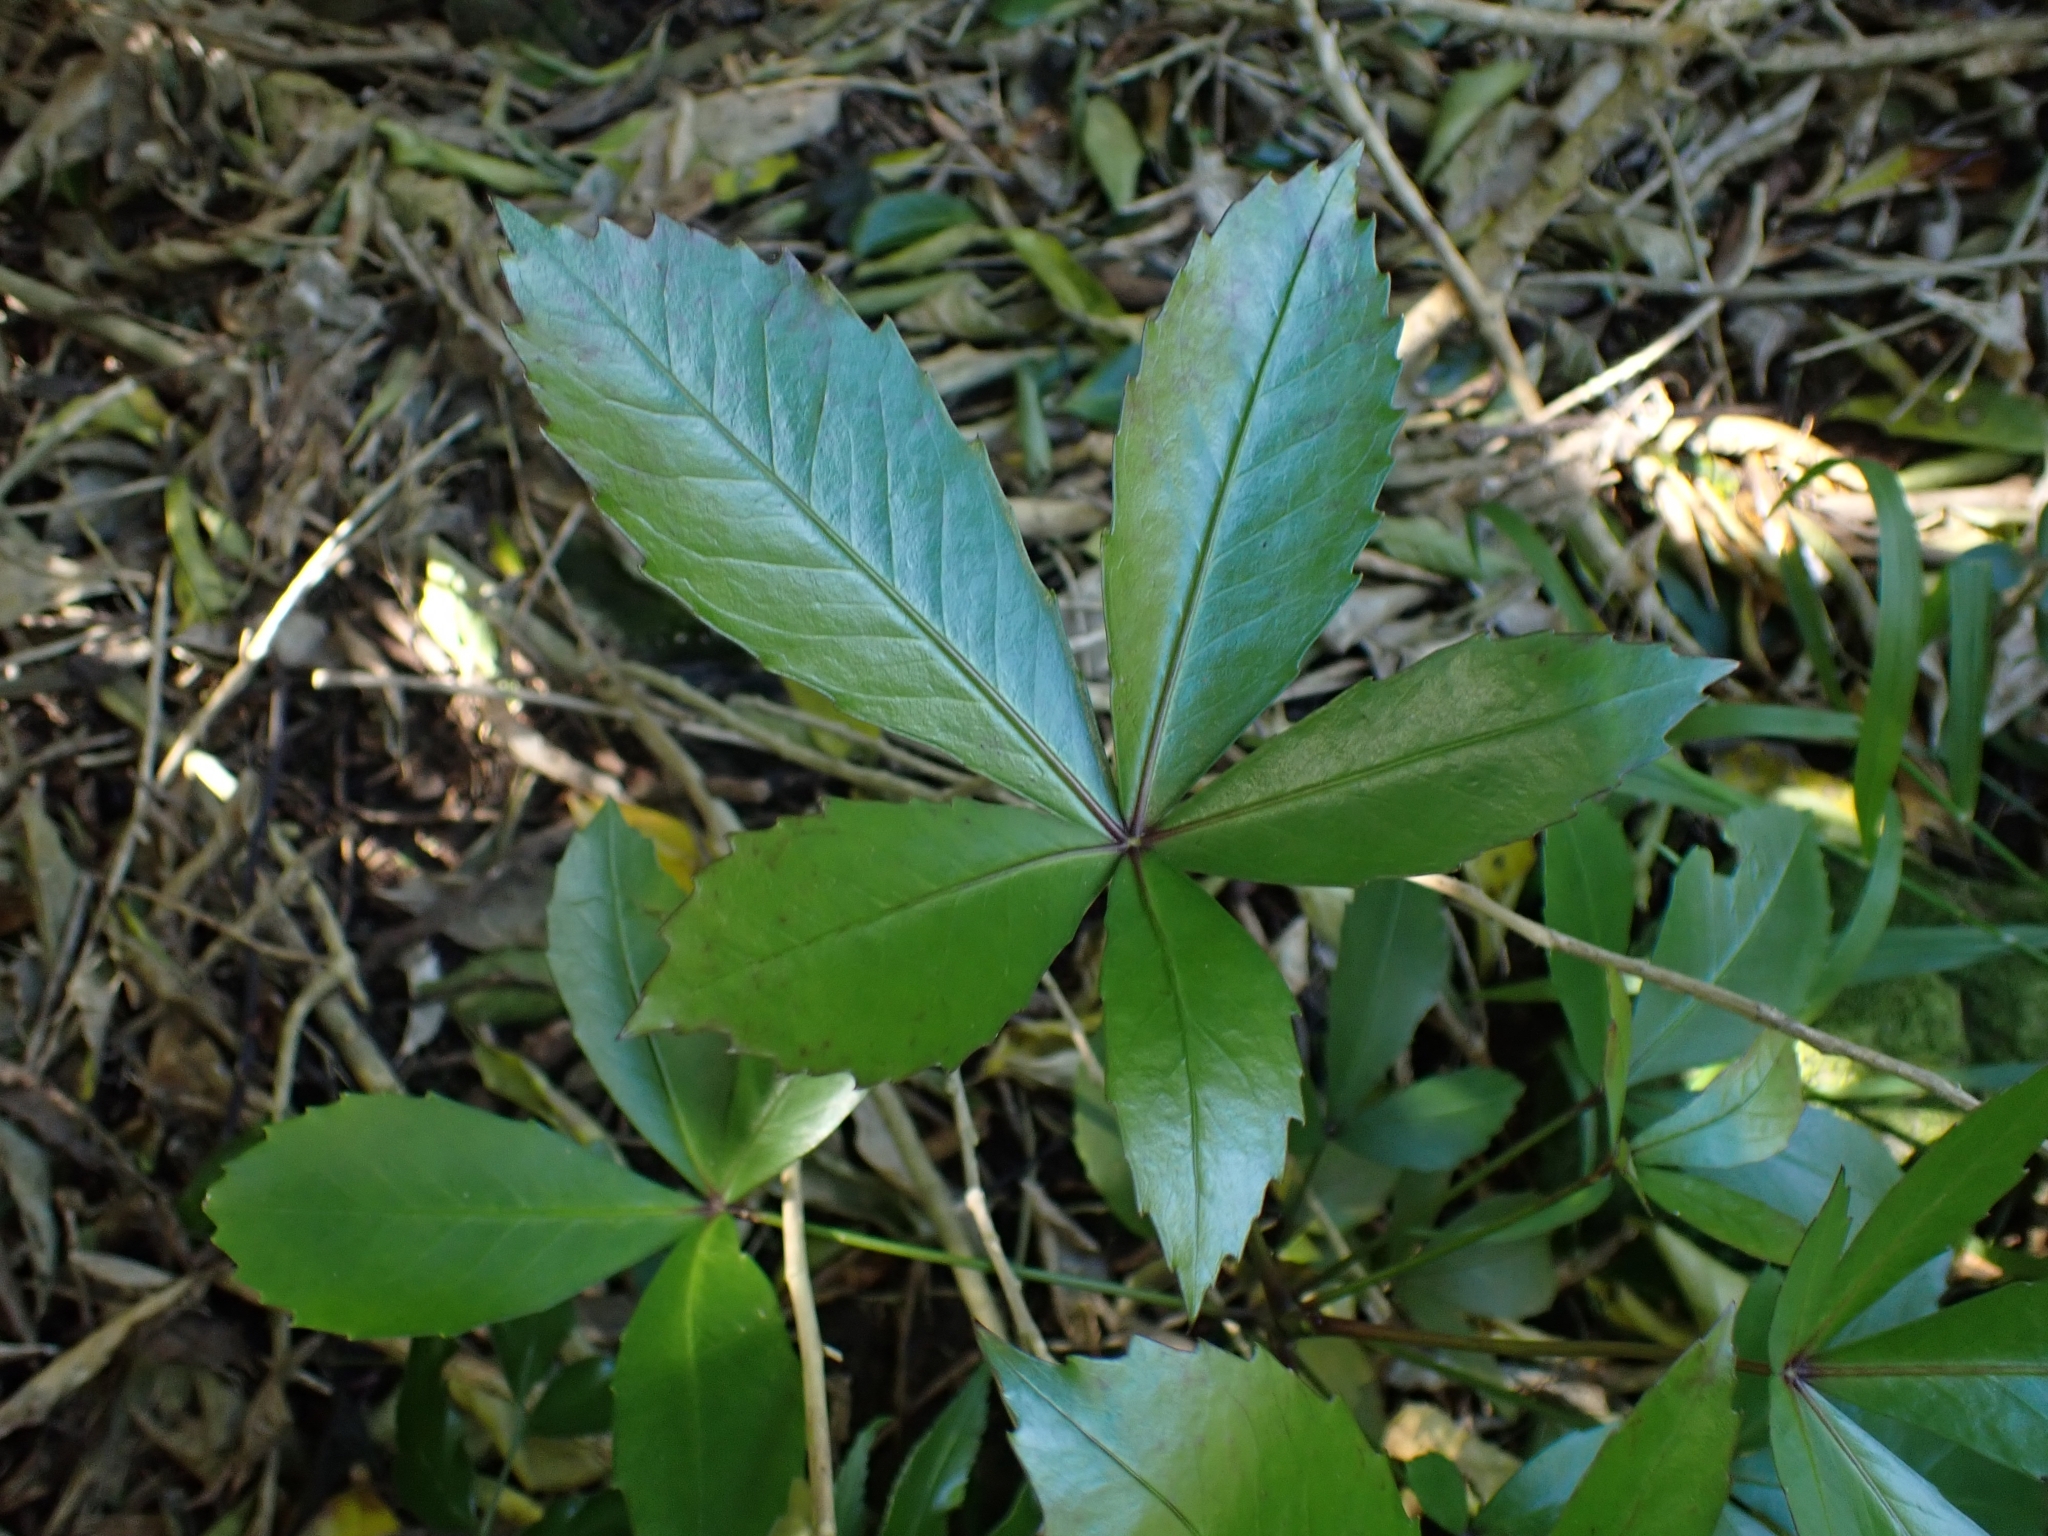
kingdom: Plantae
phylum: Tracheophyta
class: Magnoliopsida
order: Apiales
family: Araliaceae
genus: Pseudopanax
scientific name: Pseudopanax lessonii
